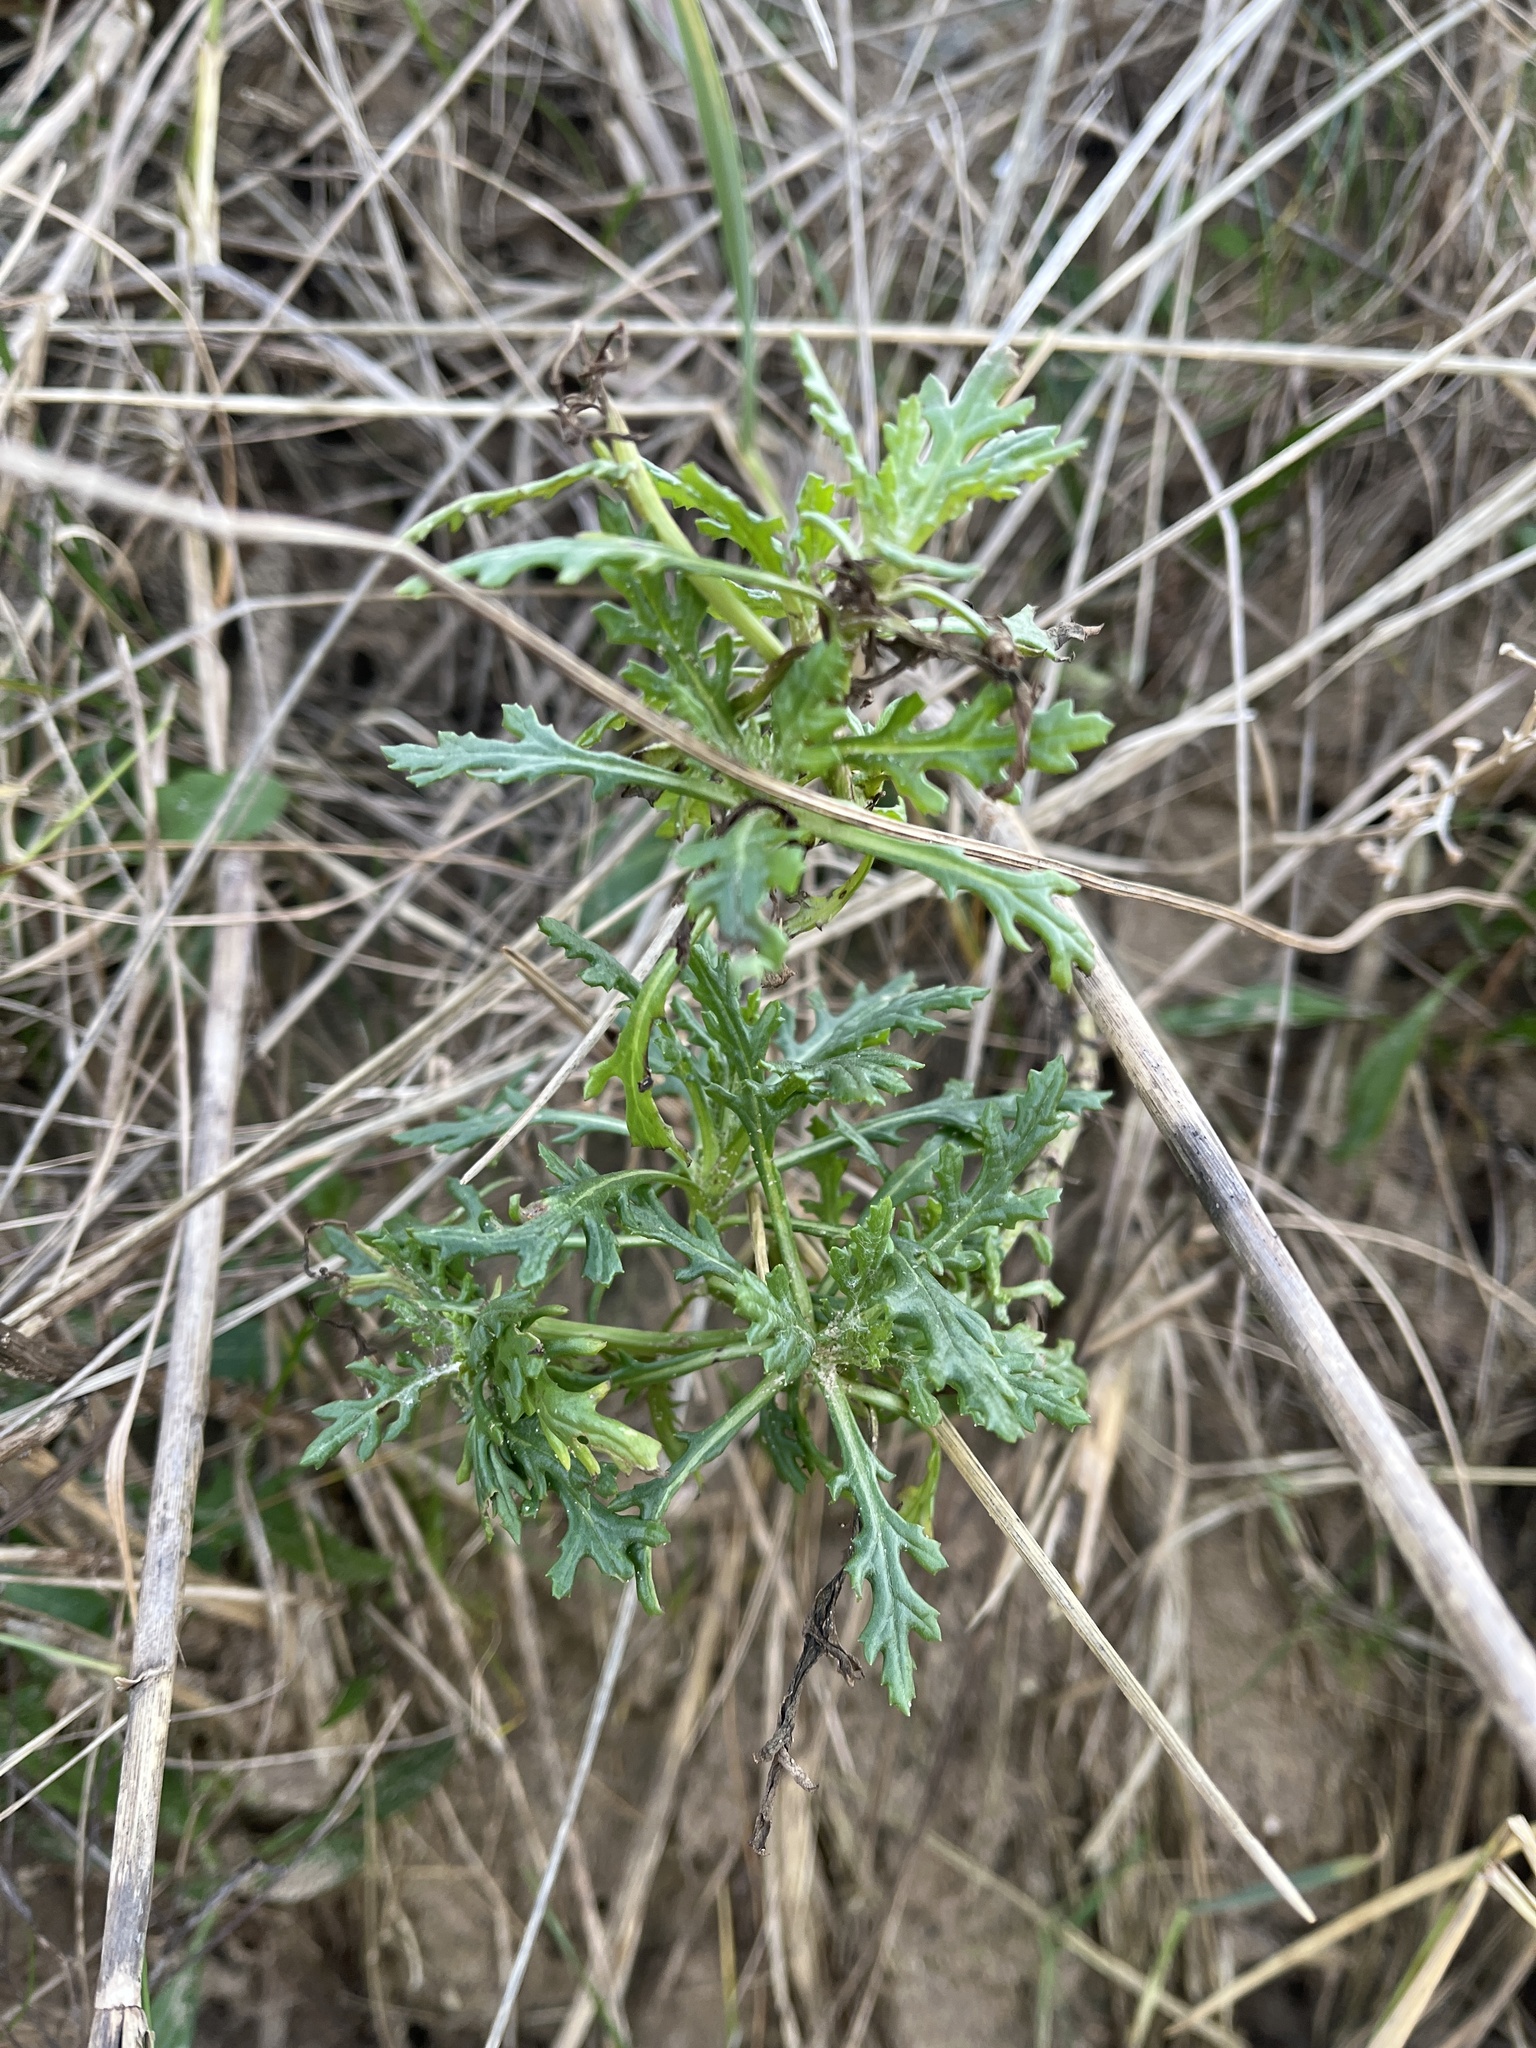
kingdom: Plantae
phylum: Tracheophyta
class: Magnoliopsida
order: Asterales
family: Asteraceae
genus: Senecio
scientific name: Senecio squalidus
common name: Oxford ragwort
